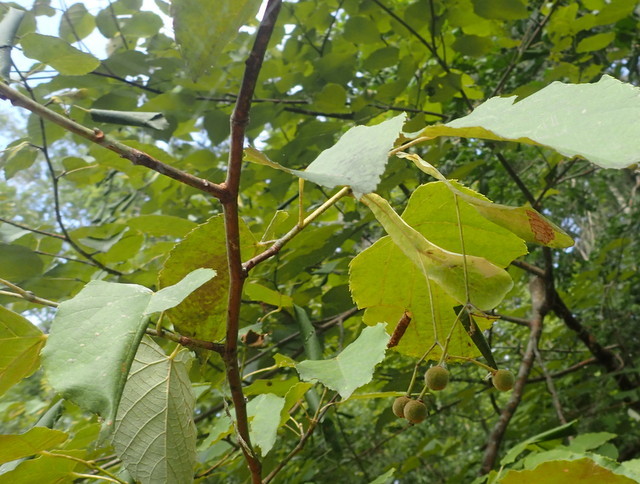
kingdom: Plantae
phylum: Tracheophyta
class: Magnoliopsida
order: Malvales
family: Malvaceae
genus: Tilia
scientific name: Tilia americana
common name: Basswood
